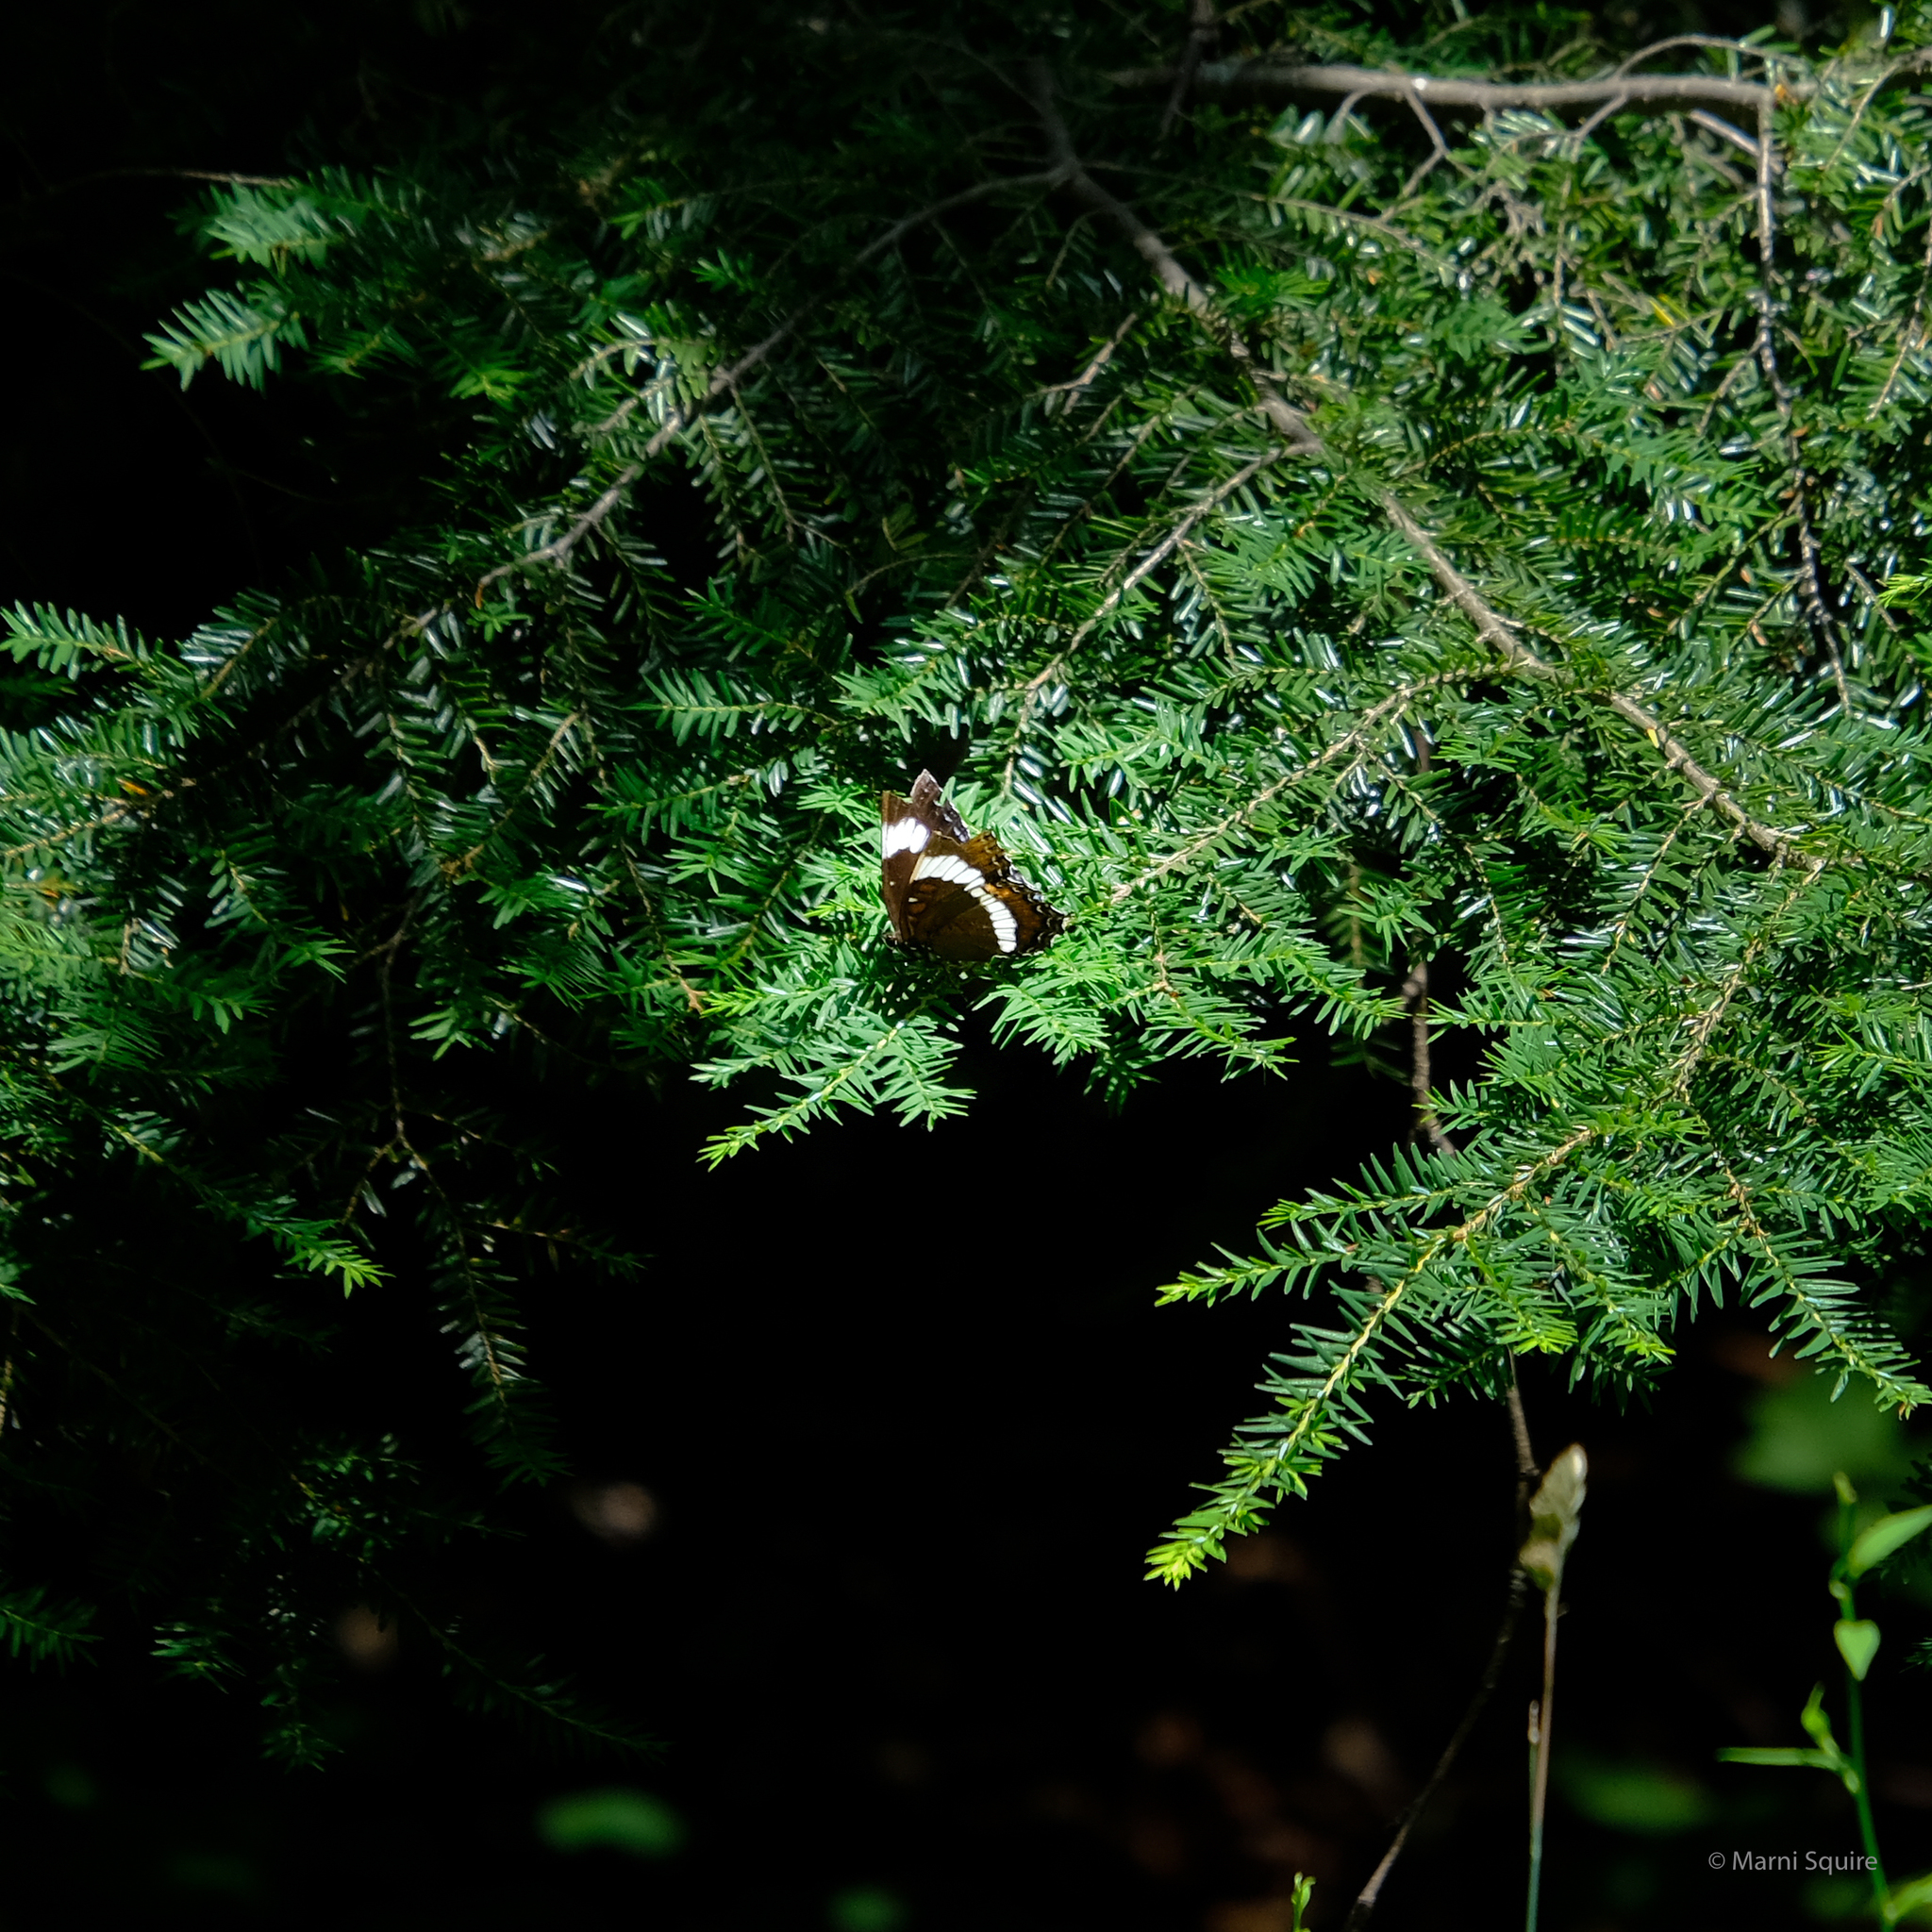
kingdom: Animalia
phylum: Arthropoda
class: Insecta
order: Lepidoptera
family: Nymphalidae
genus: Limenitis
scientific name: Limenitis arthemis
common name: Red-spotted admiral
